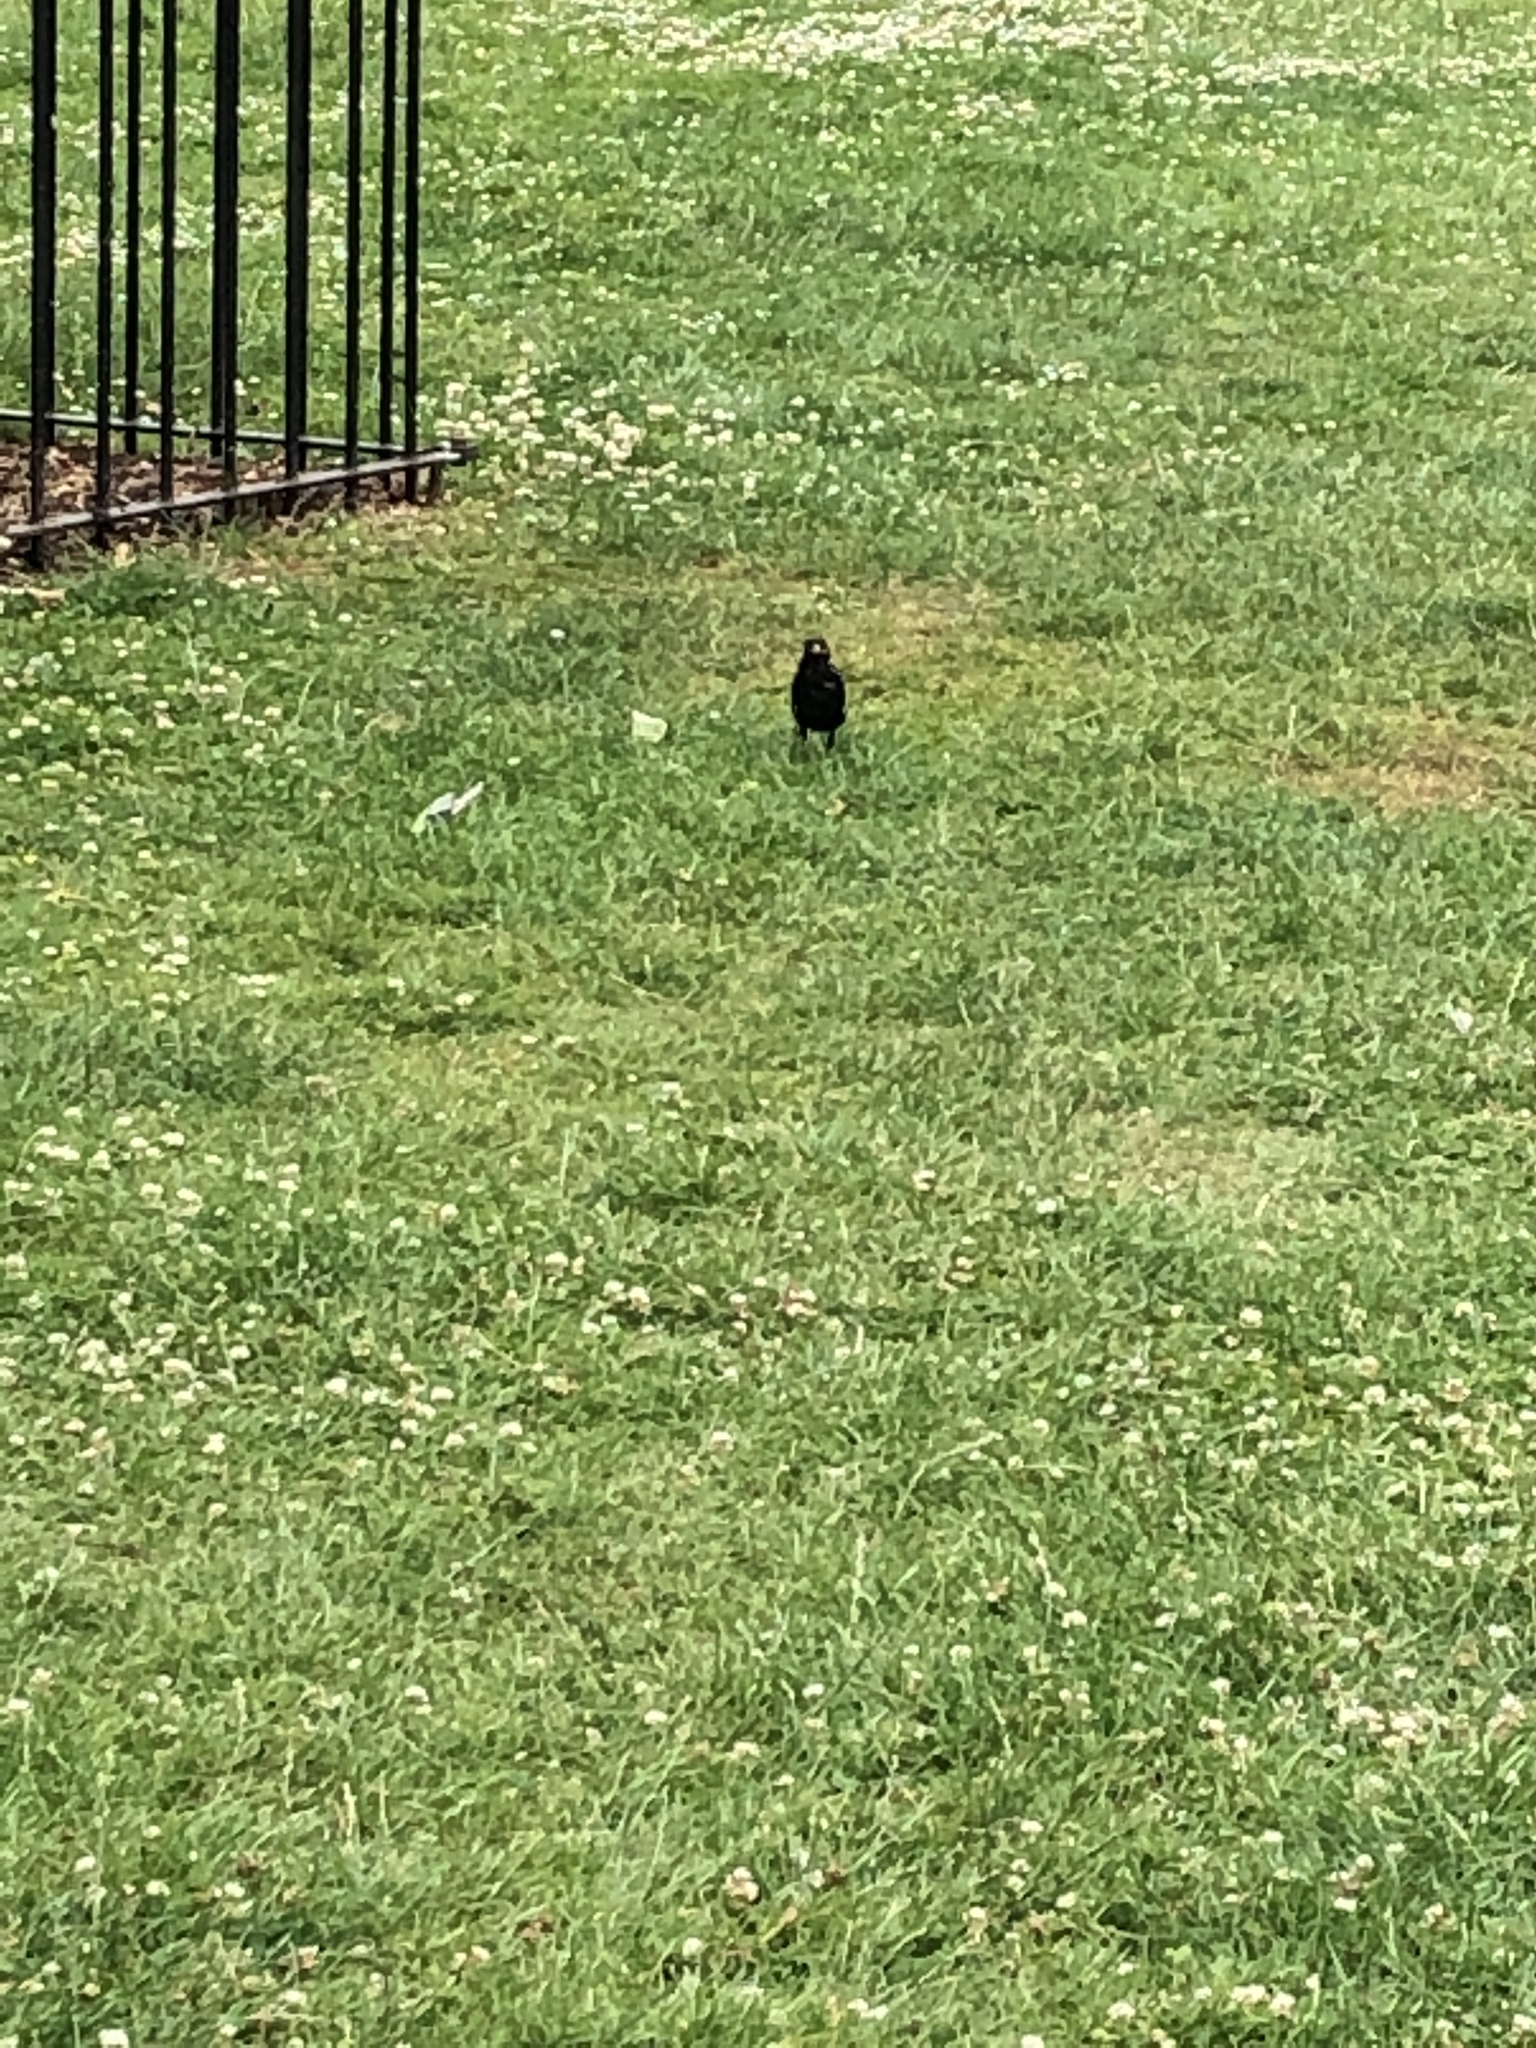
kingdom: Animalia
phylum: Chordata
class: Aves
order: Passeriformes
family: Turdidae
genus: Turdus
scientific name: Turdus merula
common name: Common blackbird
